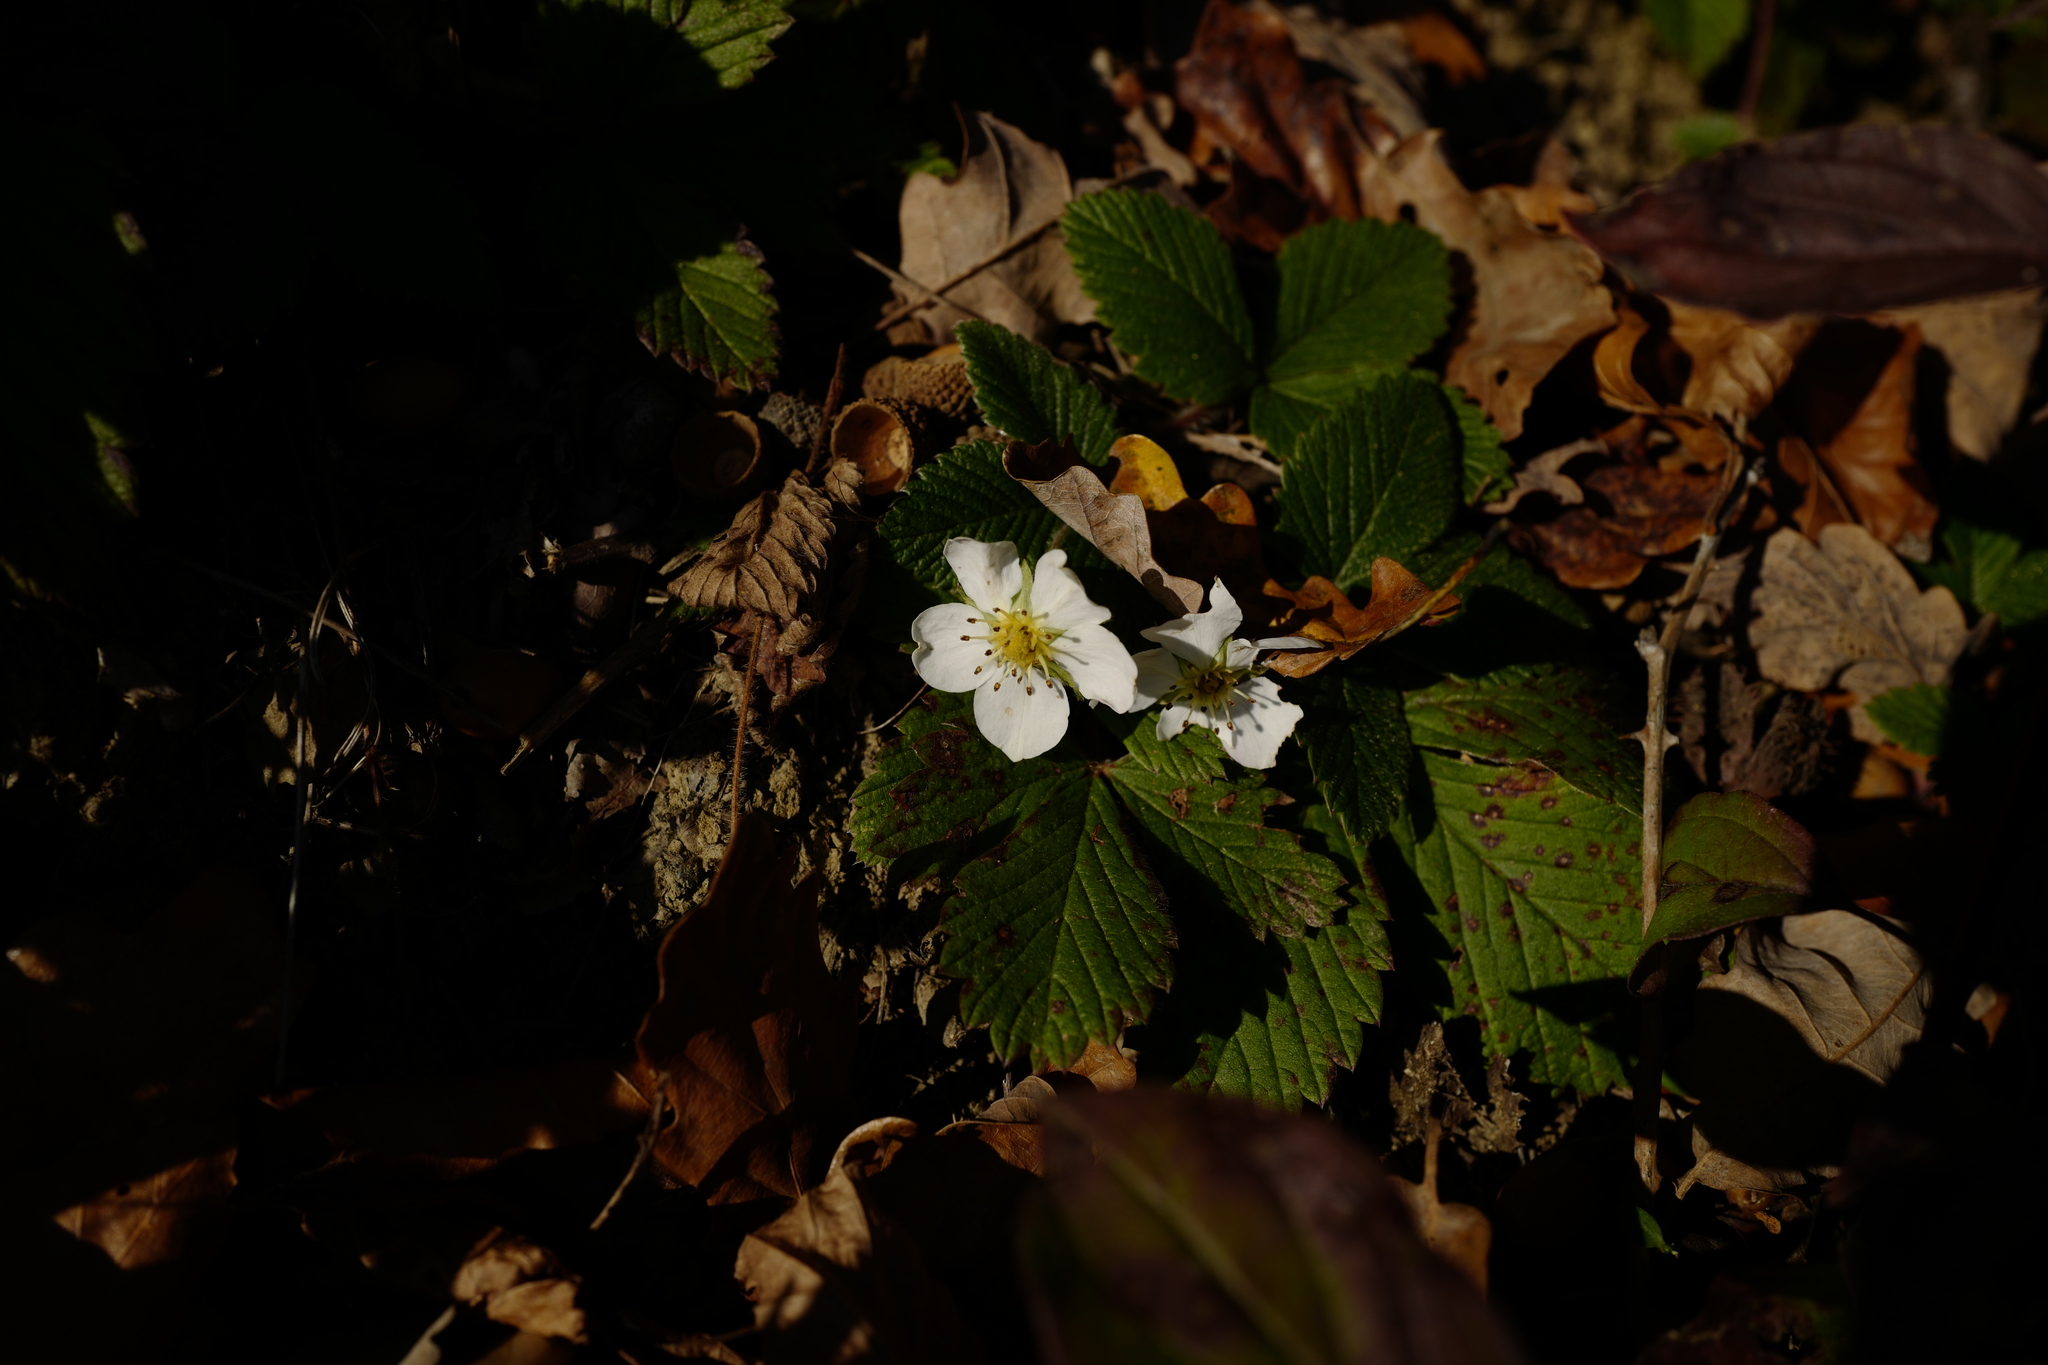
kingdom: Plantae
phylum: Tracheophyta
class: Magnoliopsida
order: Rosales
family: Rosaceae
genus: Fragaria
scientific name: Fragaria vesca
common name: Wild strawberry
